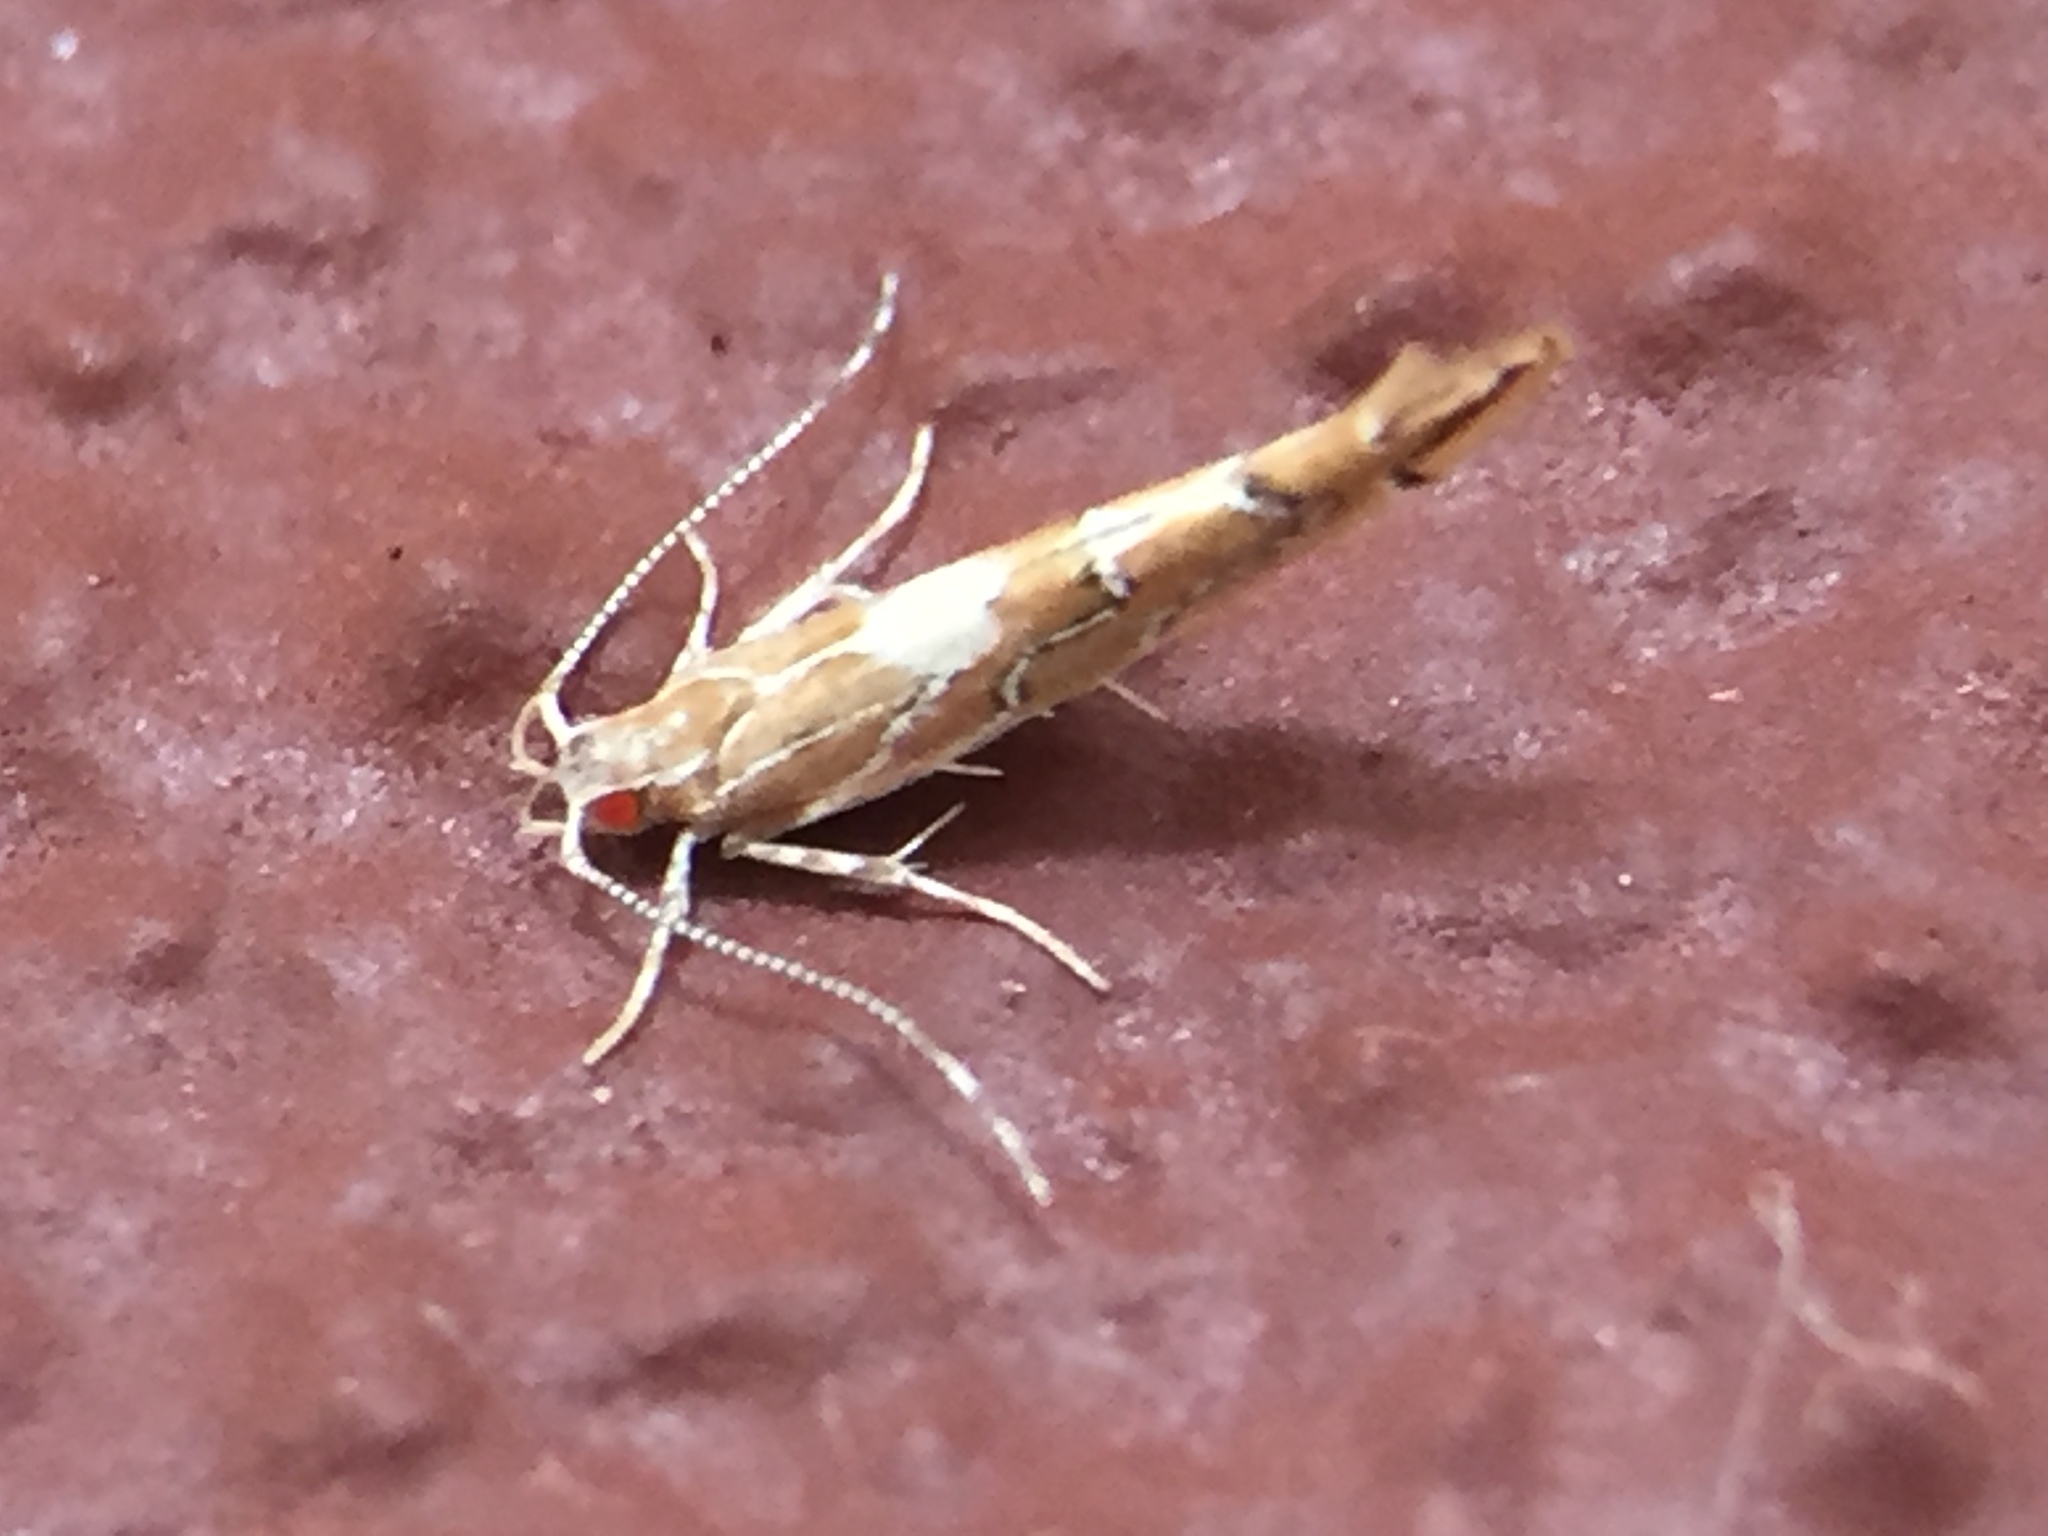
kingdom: Animalia
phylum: Arthropoda
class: Insecta
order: Lepidoptera
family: Cosmopterigidae
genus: Pyroderces
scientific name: Pyroderces apparitella
